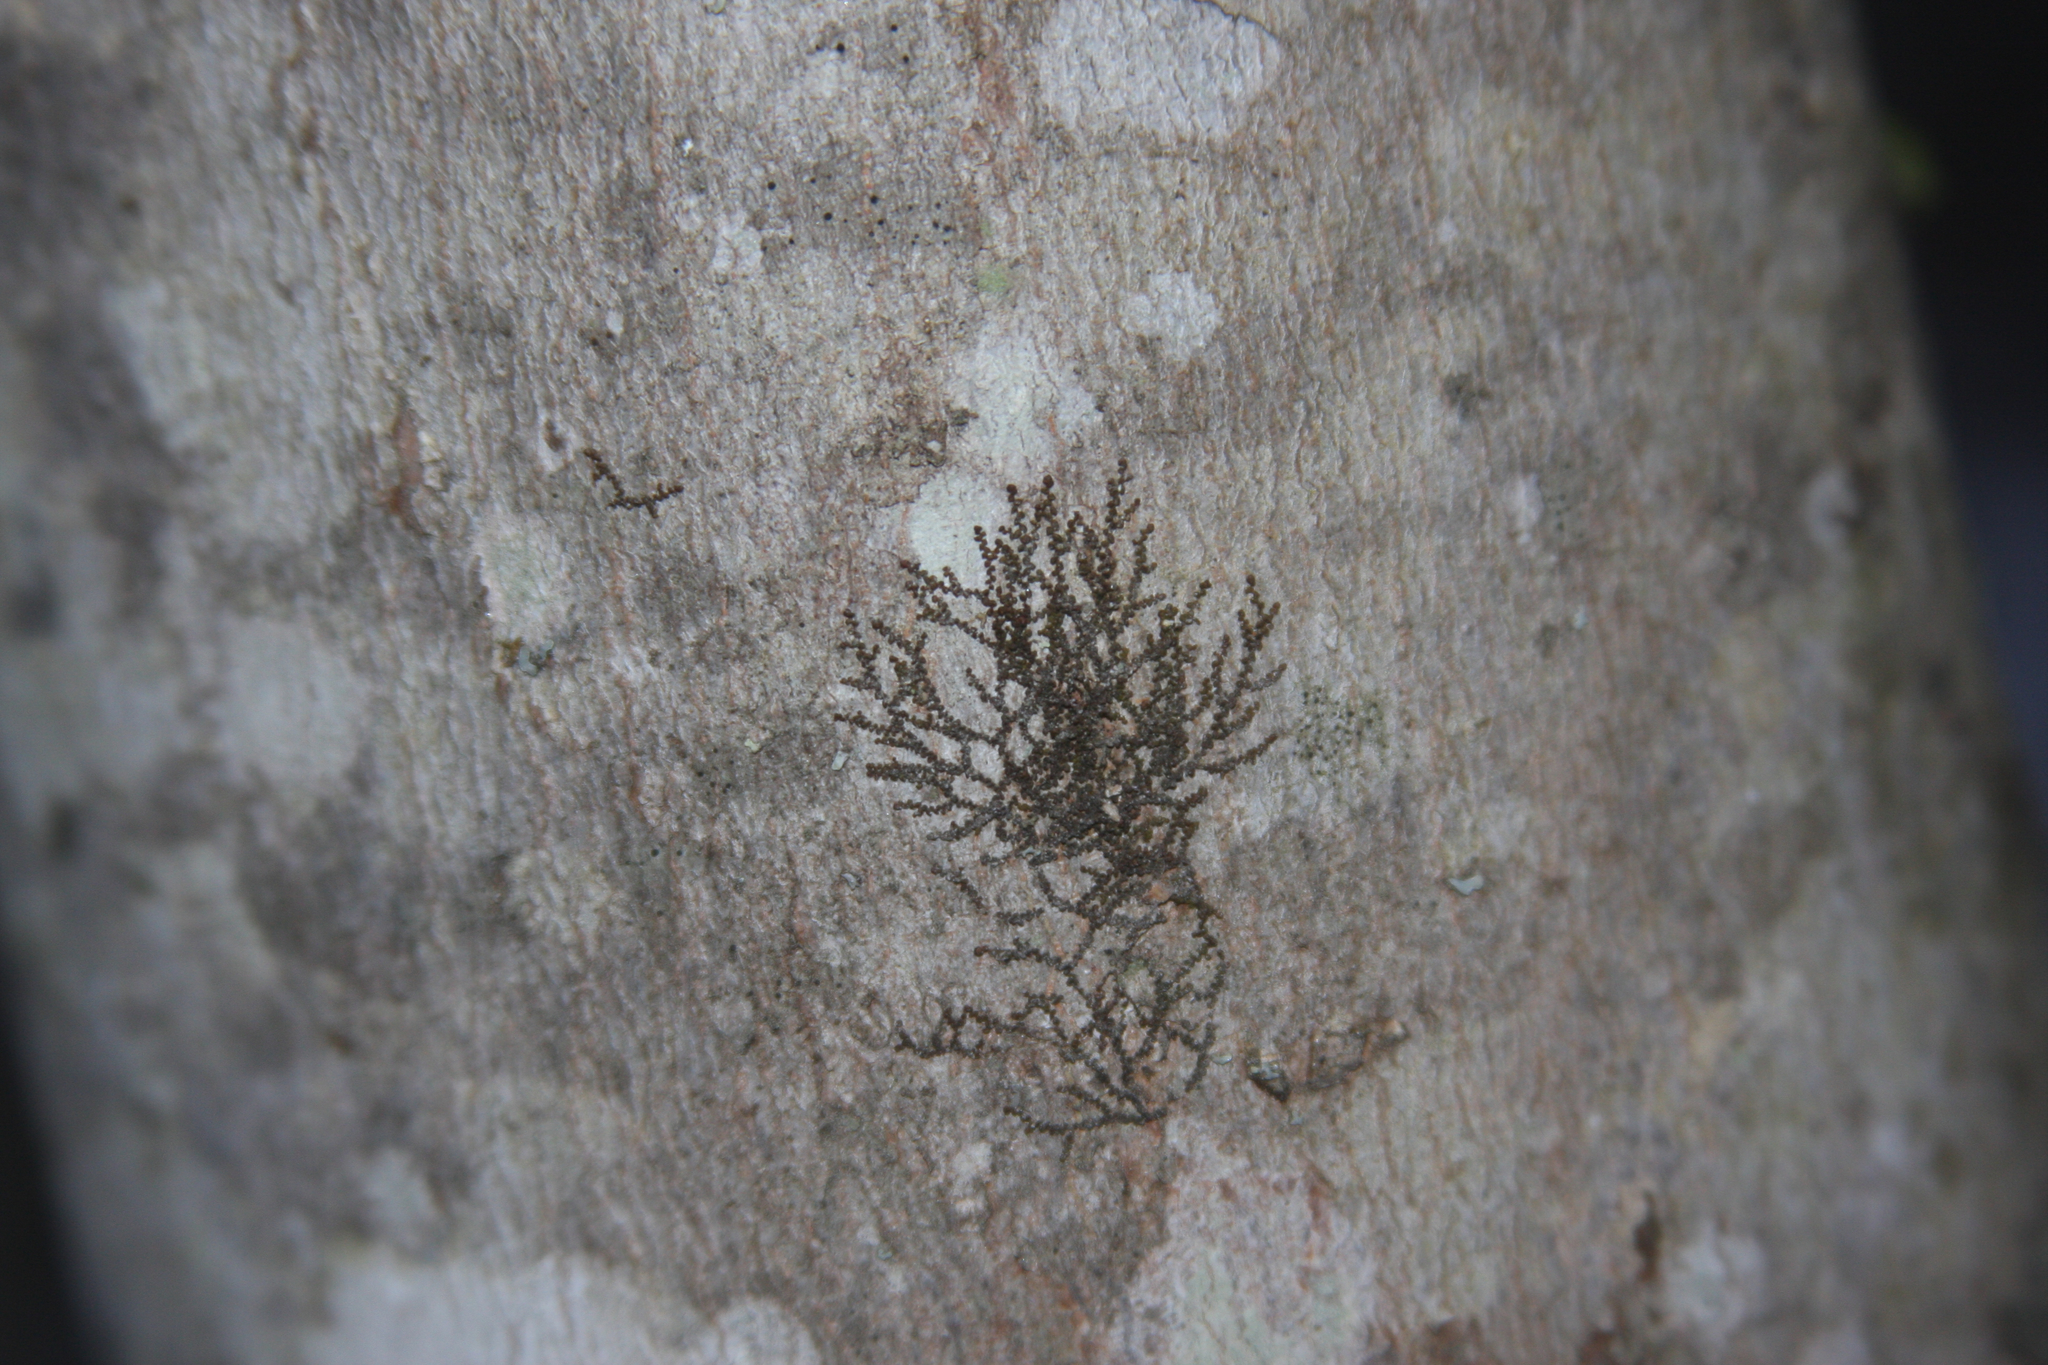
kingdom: Plantae
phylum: Marchantiophyta
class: Jungermanniopsida
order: Porellales
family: Frullaniaceae
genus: Frullania
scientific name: Frullania eboracensis
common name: New york scalewort
